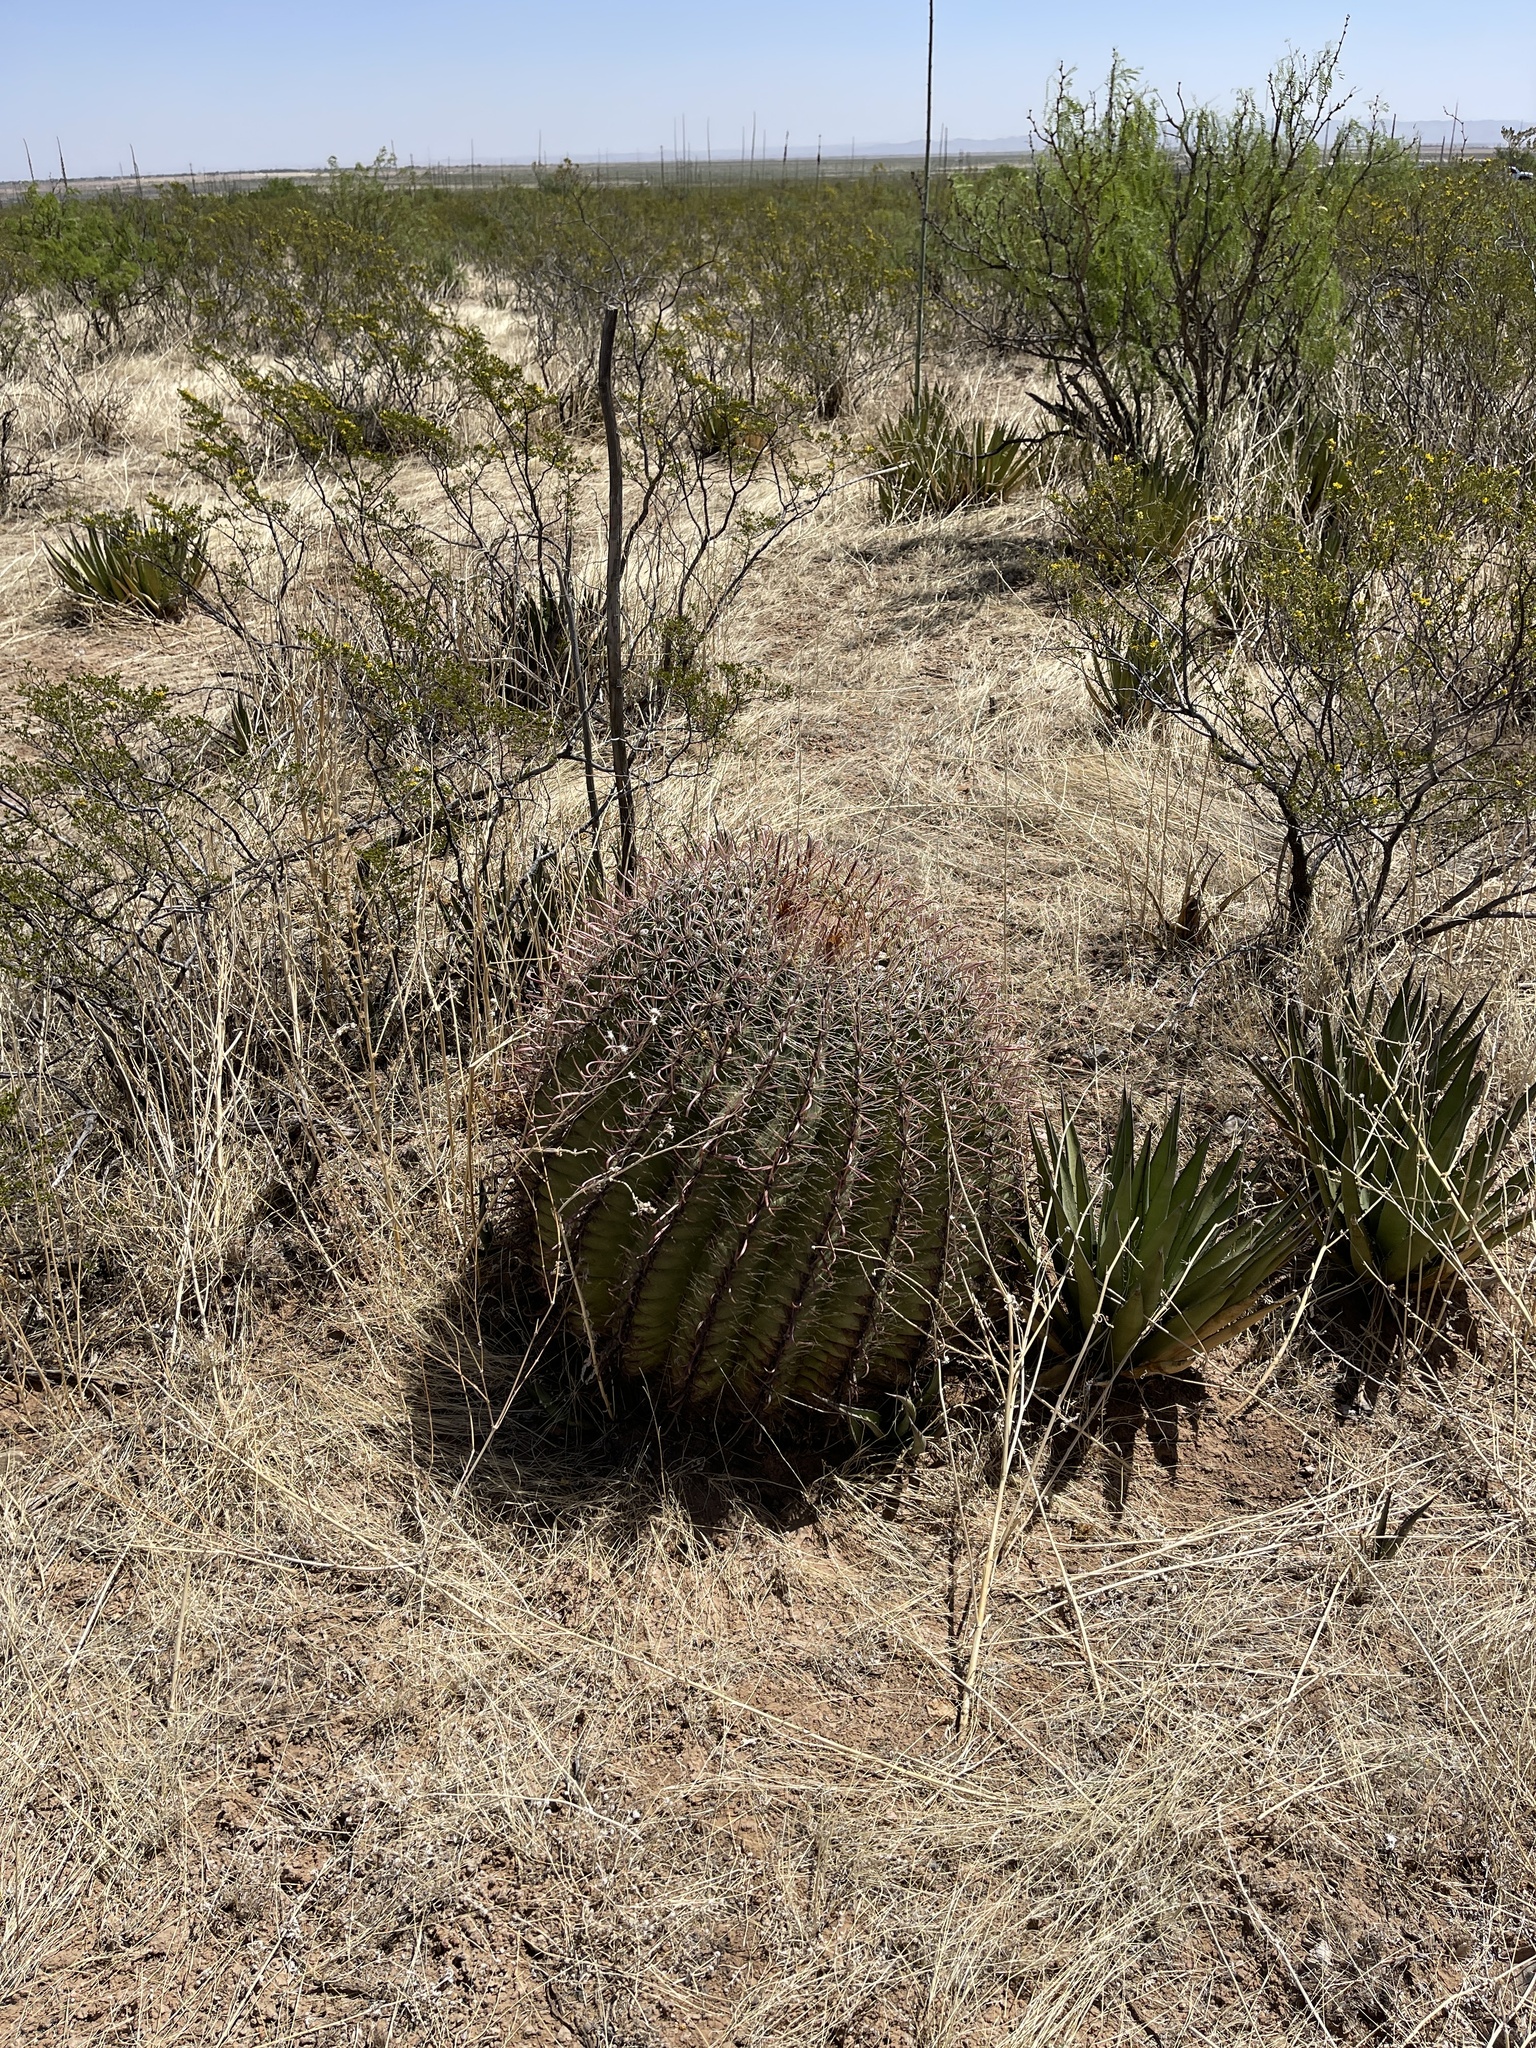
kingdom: Plantae
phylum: Tracheophyta
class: Magnoliopsida
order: Caryophyllales
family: Cactaceae
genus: Ferocactus
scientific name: Ferocactus wislizeni
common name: Candy barrel cactus
